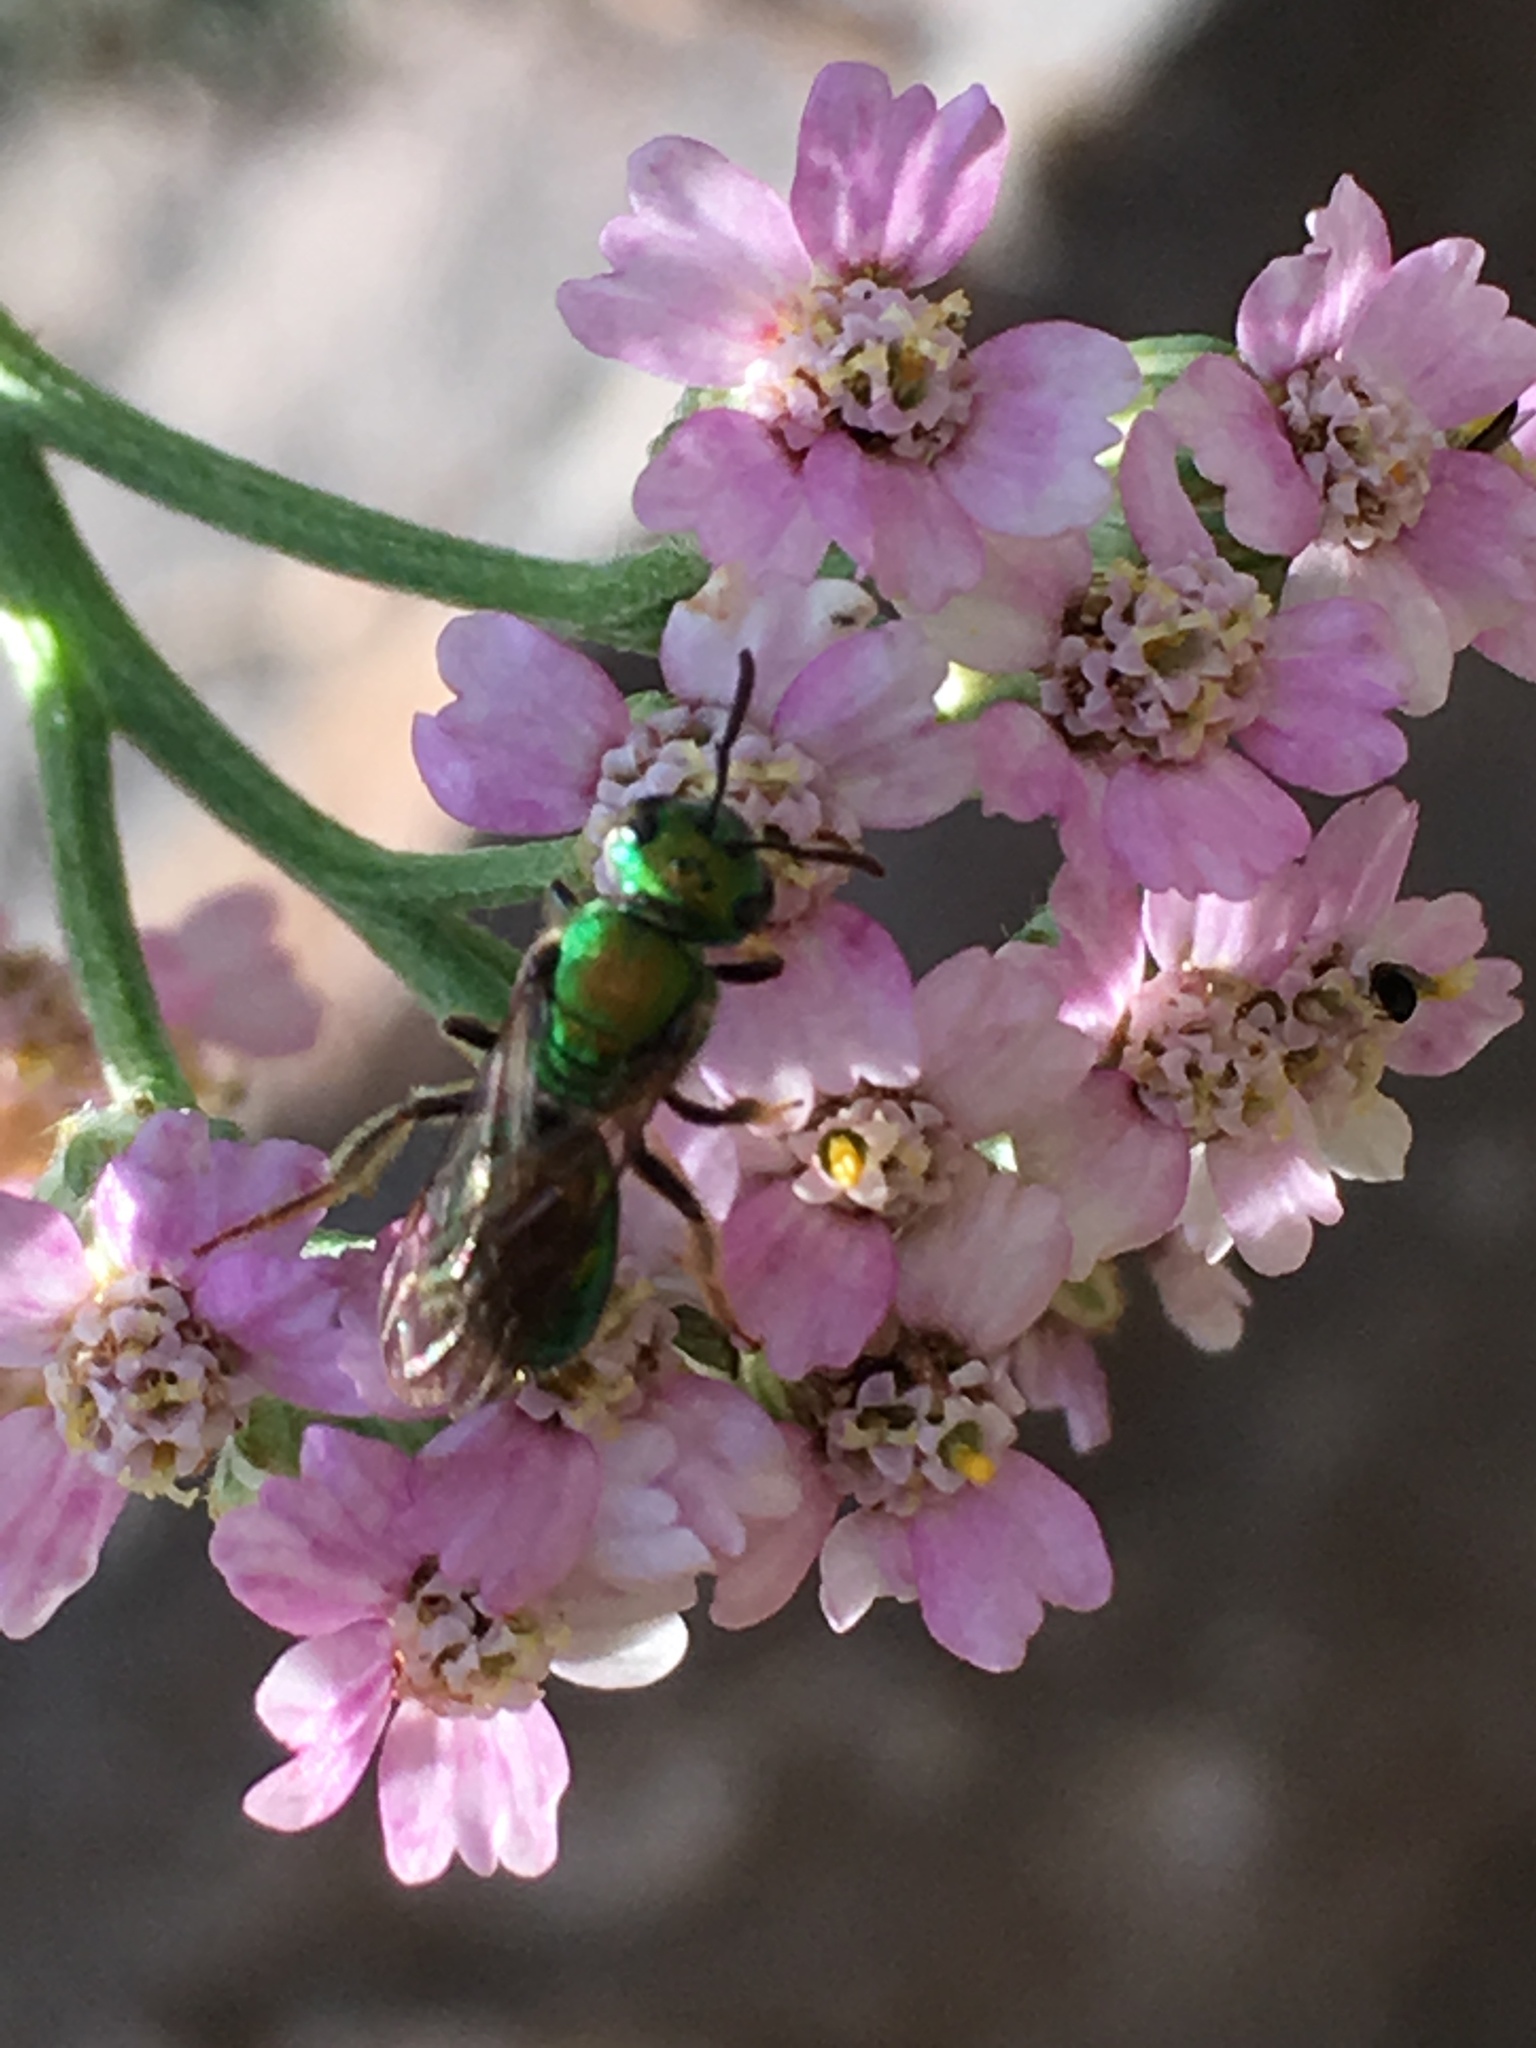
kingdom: Animalia
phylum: Arthropoda
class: Insecta
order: Hymenoptera
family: Halictidae
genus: Augochlora
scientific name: Augochlora pura
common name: Pure green sweat bee
